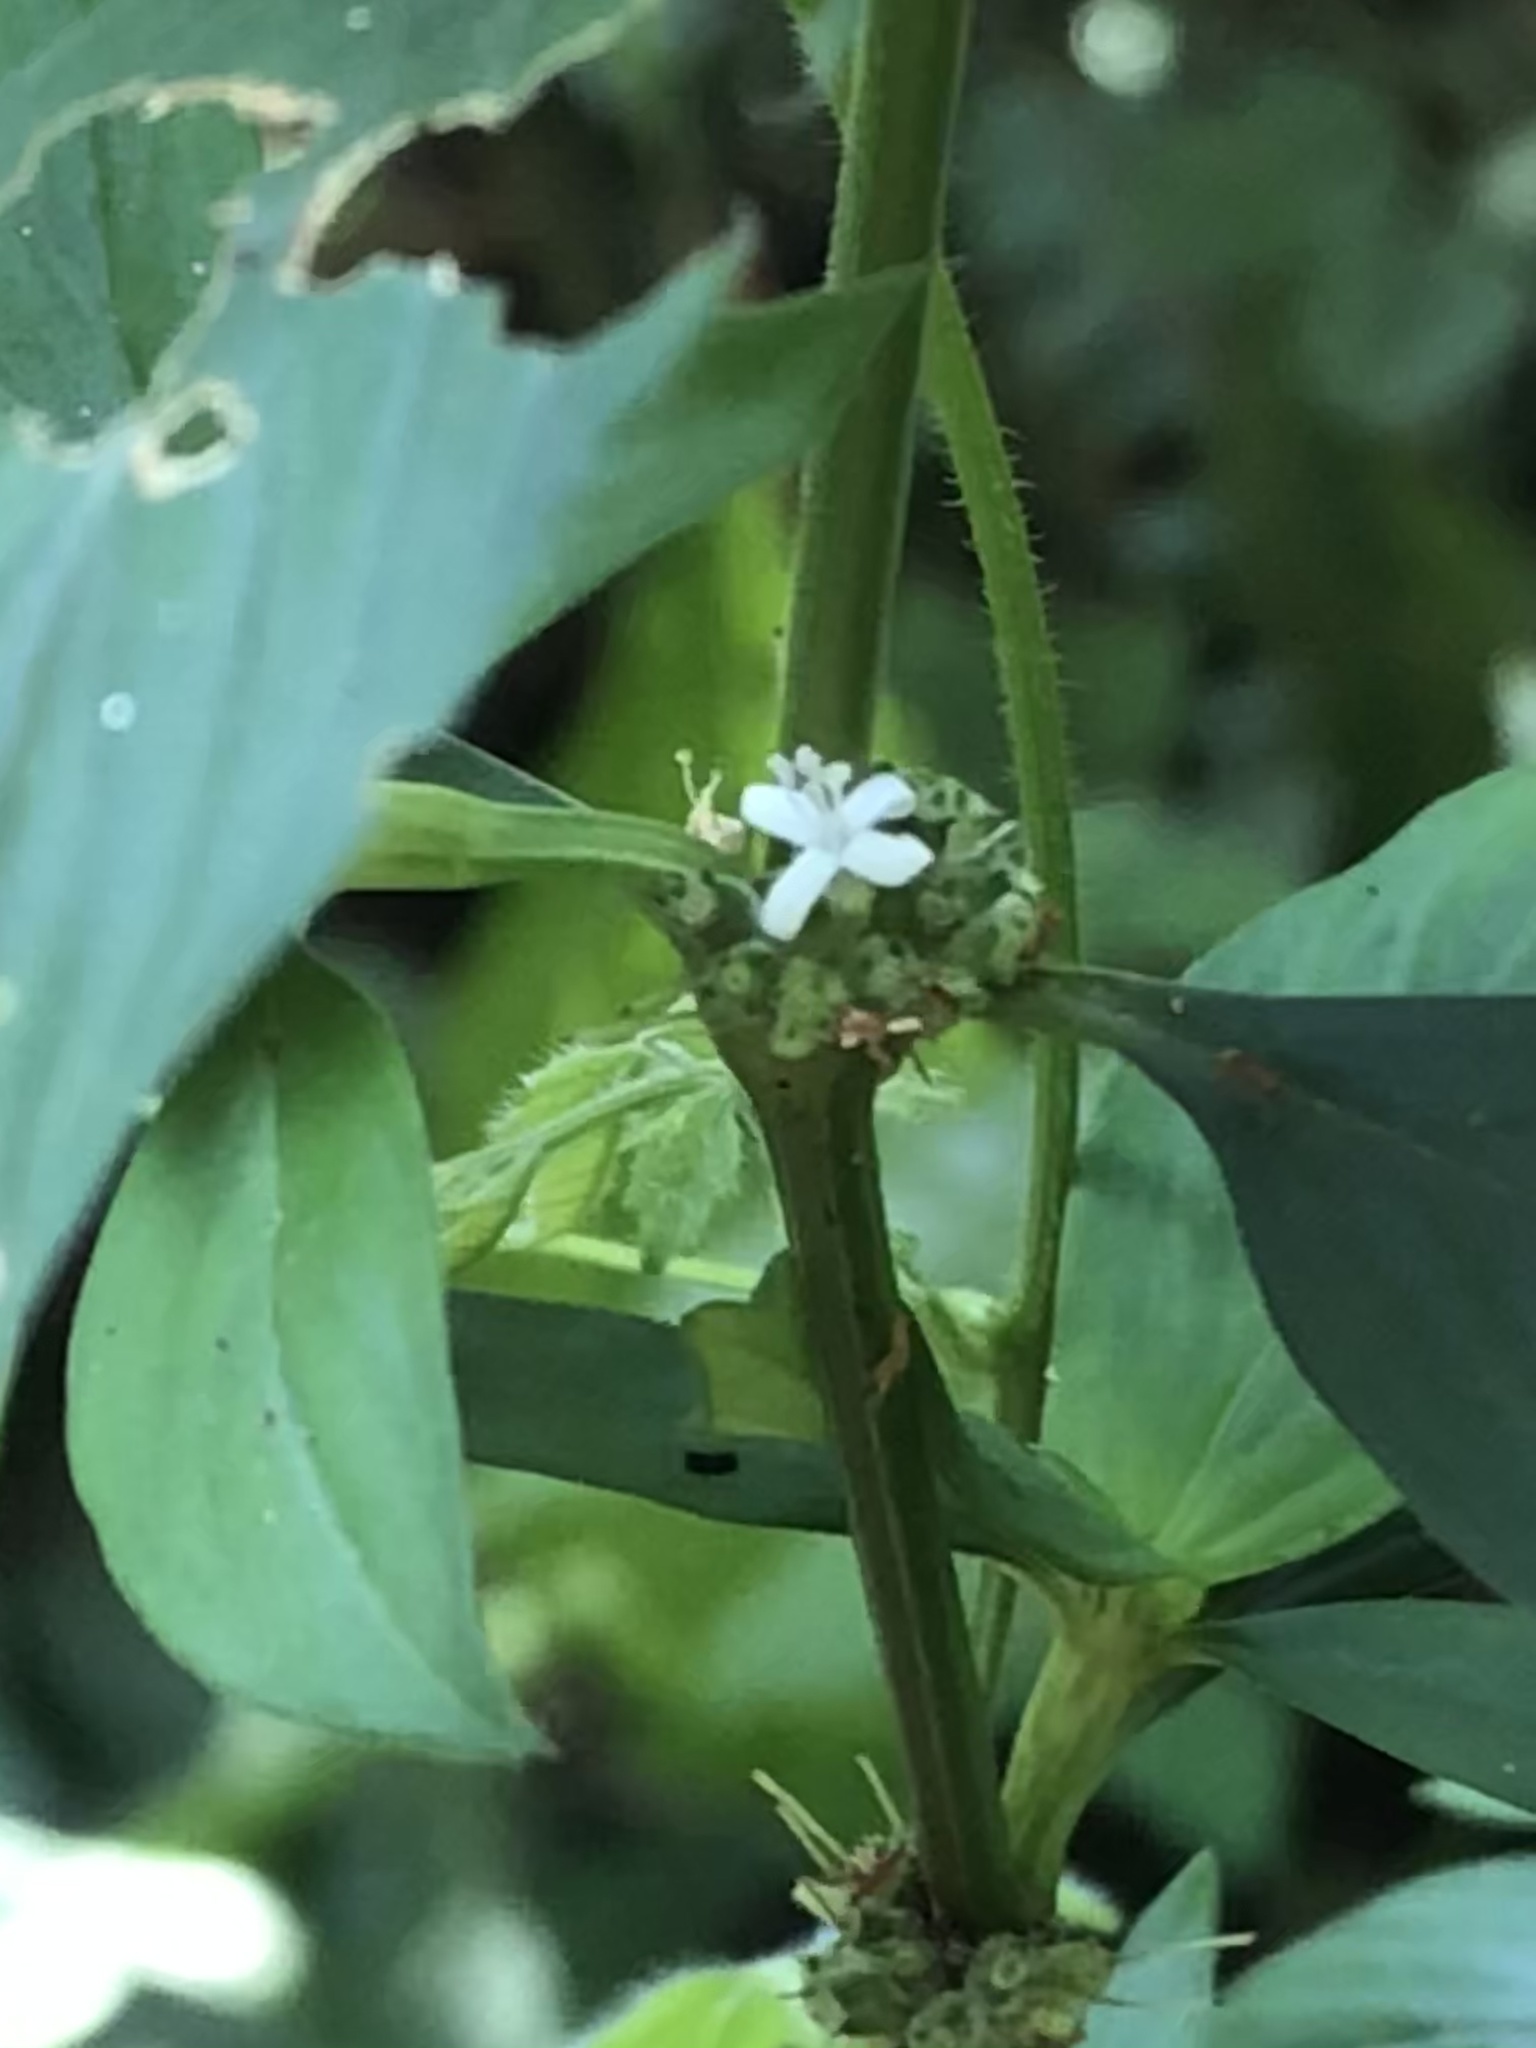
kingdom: Plantae
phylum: Tracheophyta
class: Magnoliopsida
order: Gentianales
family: Rubiaceae
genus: Spermacoce
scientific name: Spermacoce ocymifolia
